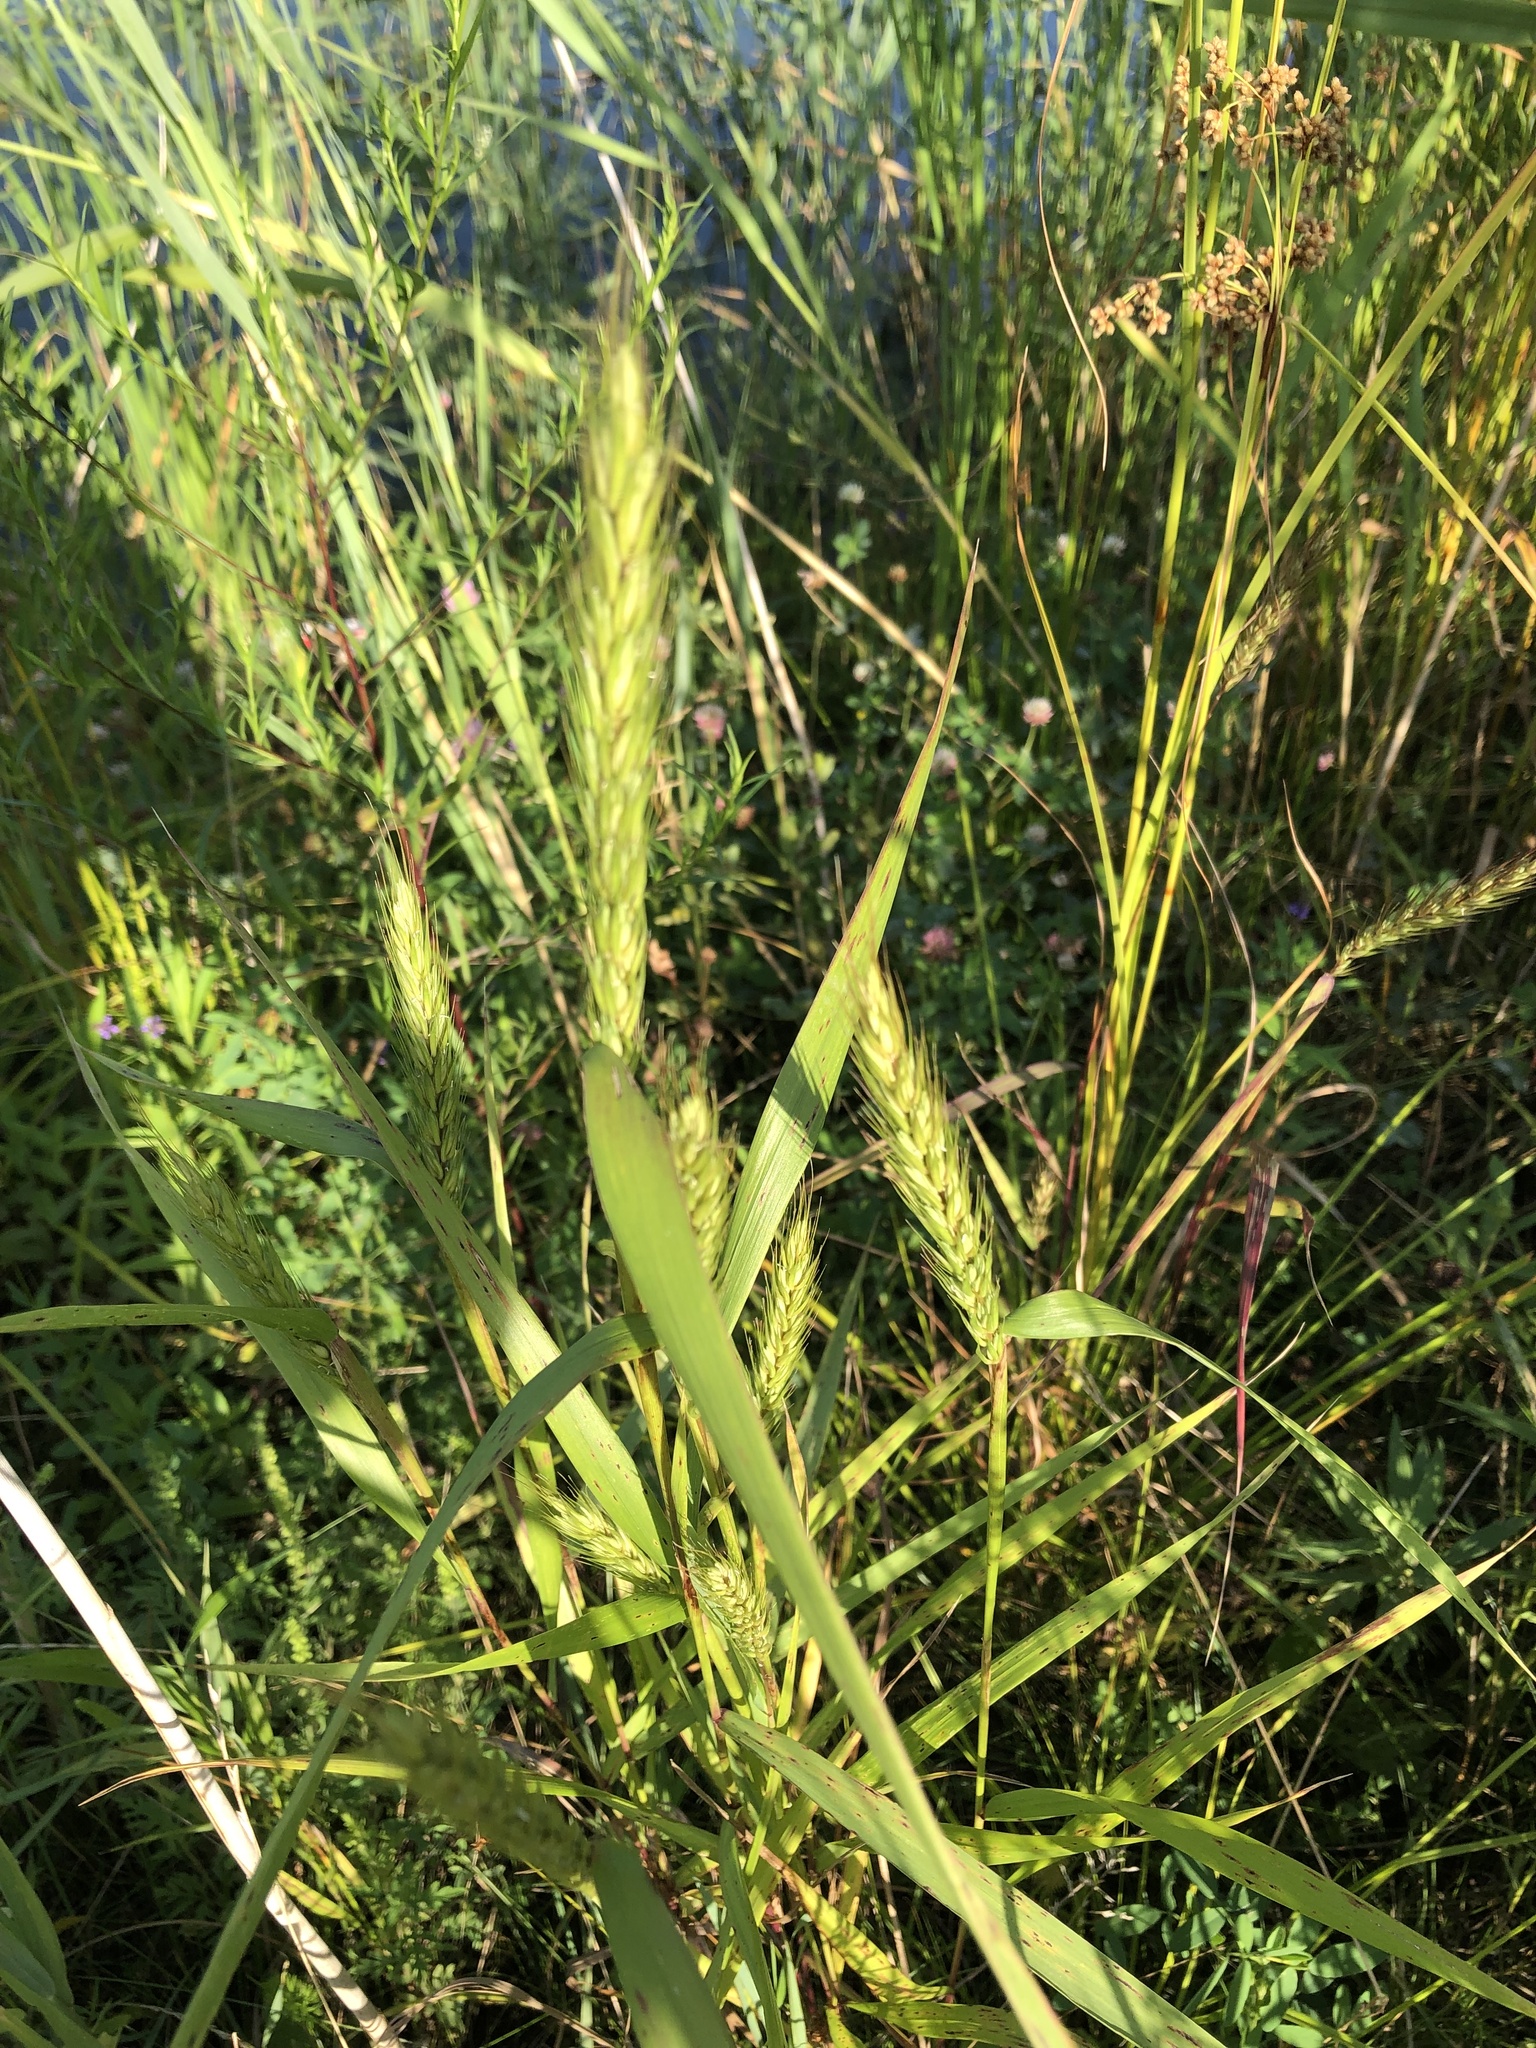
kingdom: Plantae
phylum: Tracheophyta
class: Liliopsida
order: Poales
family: Poaceae
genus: Elymus
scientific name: Elymus virginicus
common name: Common eastern wildrye
